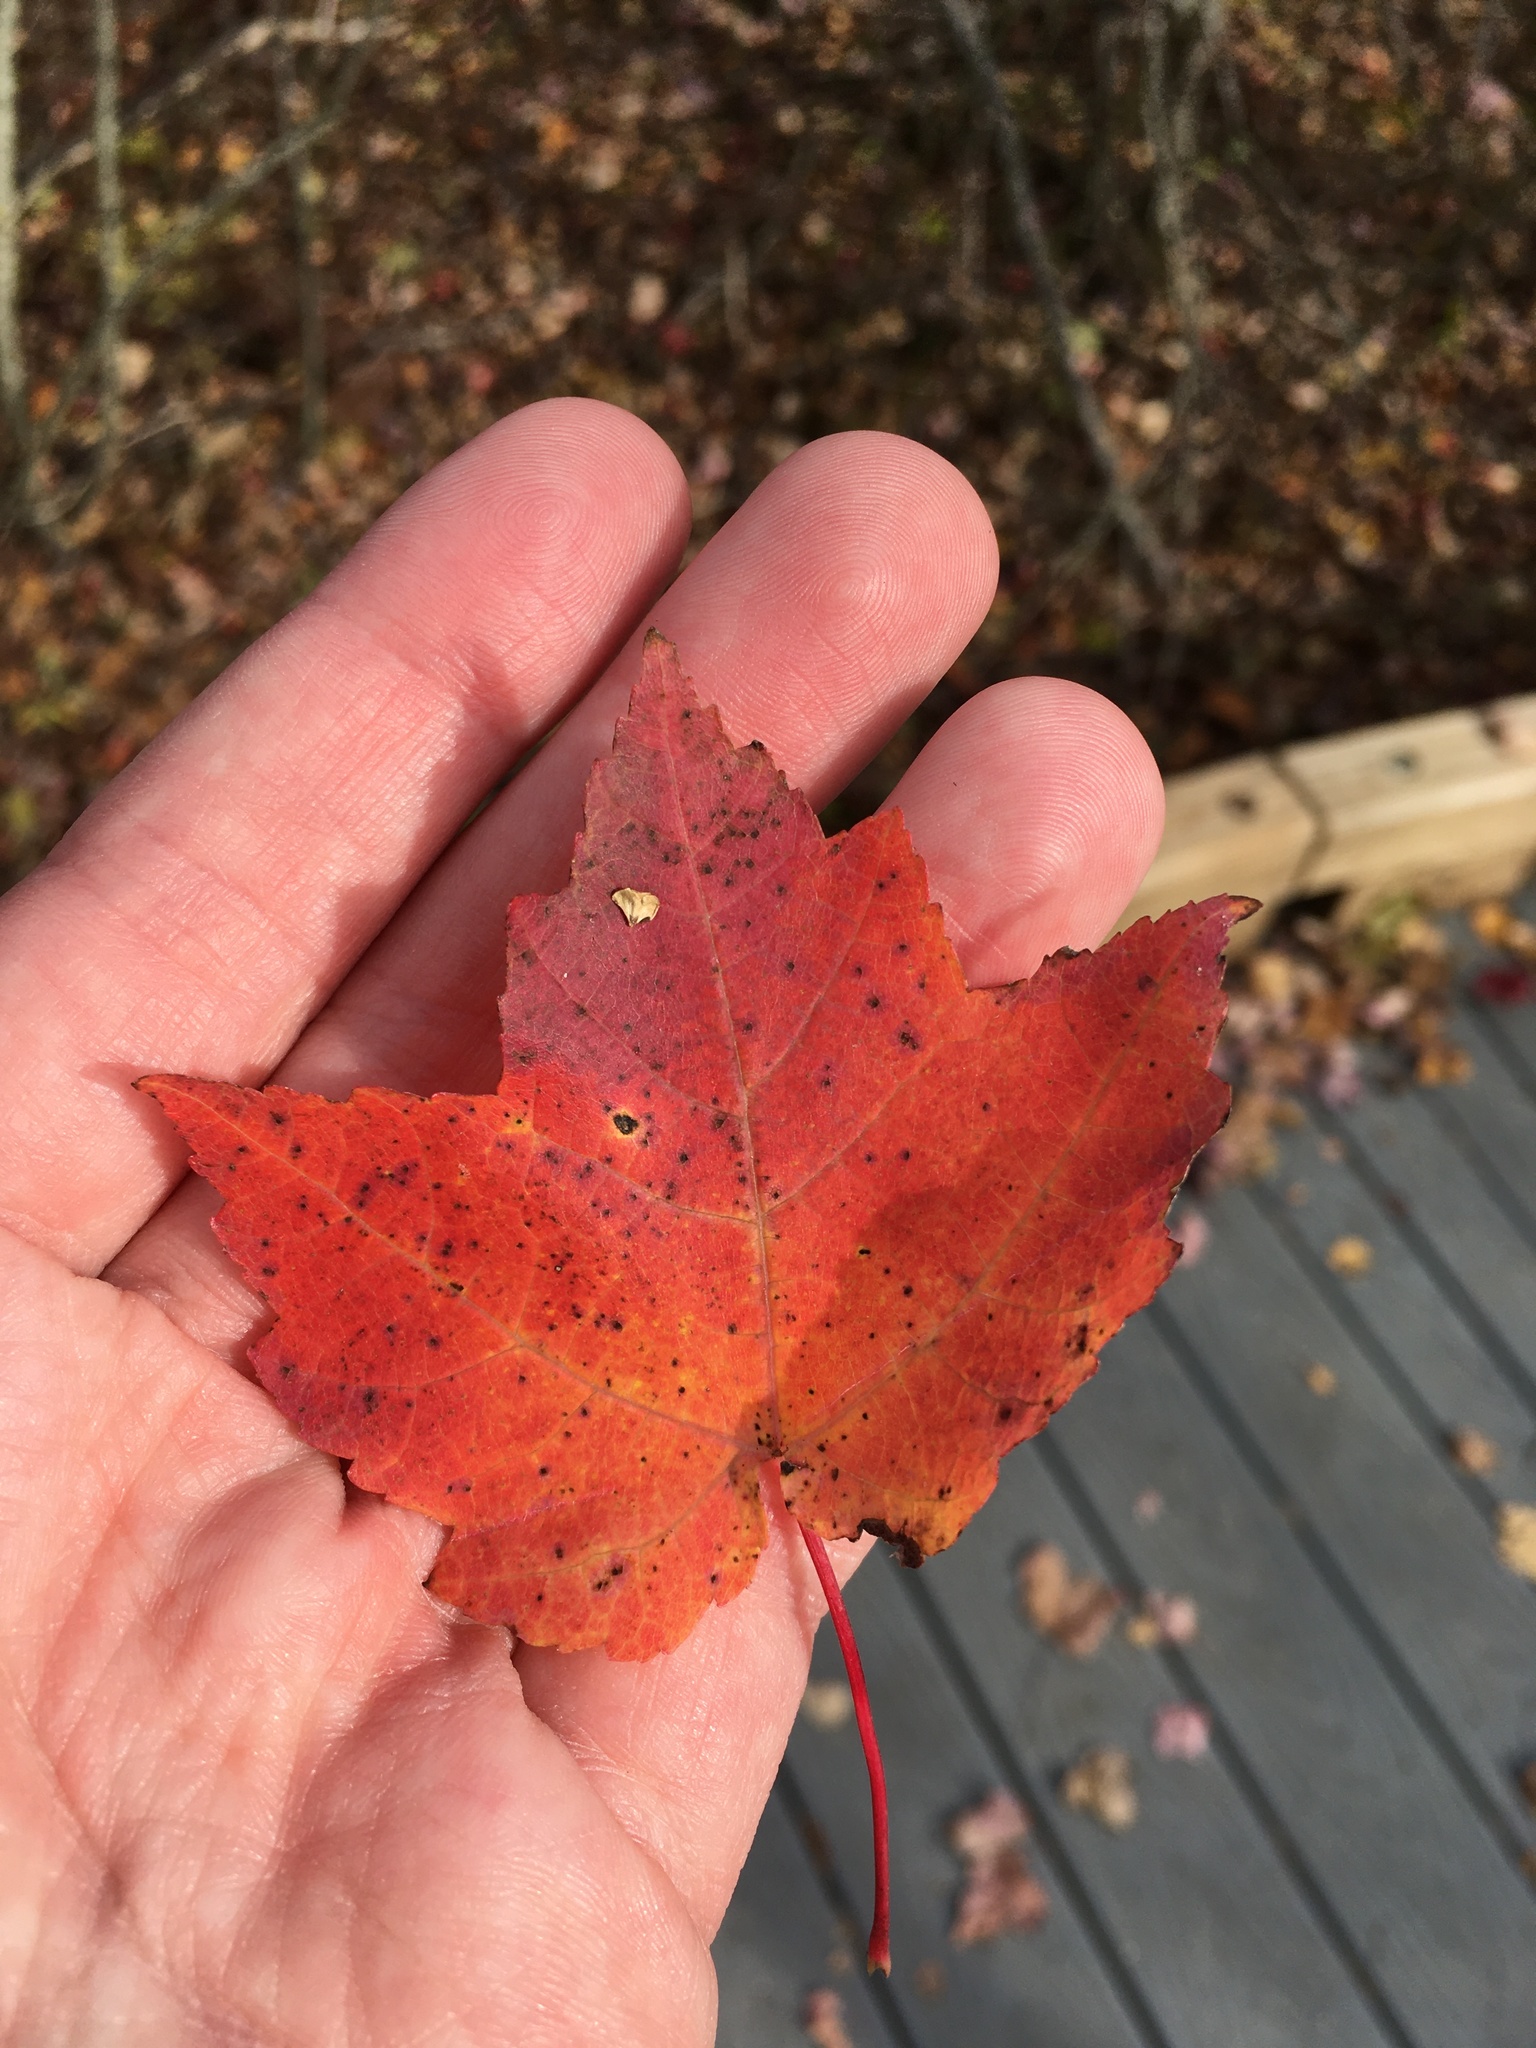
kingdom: Plantae
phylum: Tracheophyta
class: Magnoliopsida
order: Sapindales
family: Sapindaceae
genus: Acer
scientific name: Acer rubrum
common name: Red maple
